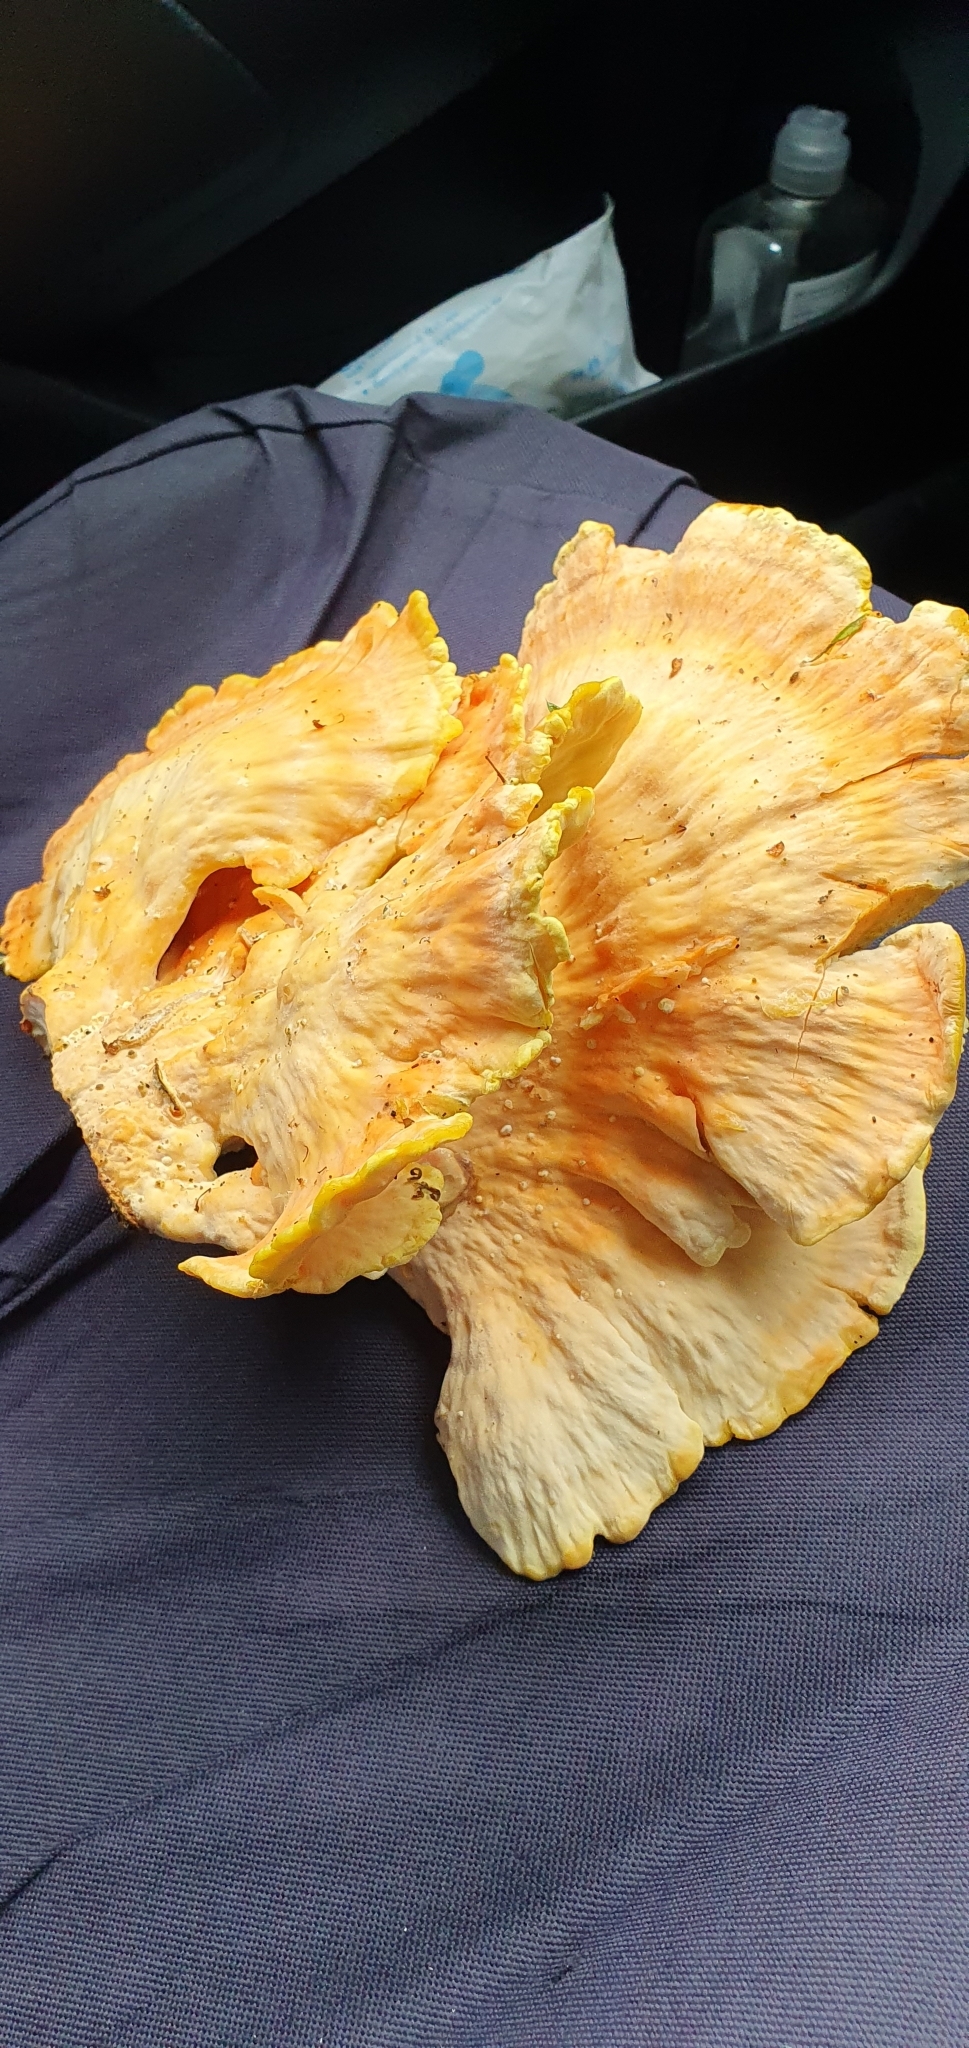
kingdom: Fungi
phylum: Basidiomycota
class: Agaricomycetes
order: Polyporales
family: Laetiporaceae
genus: Laetiporus
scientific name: Laetiporus sulphureus
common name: Chicken of the woods
